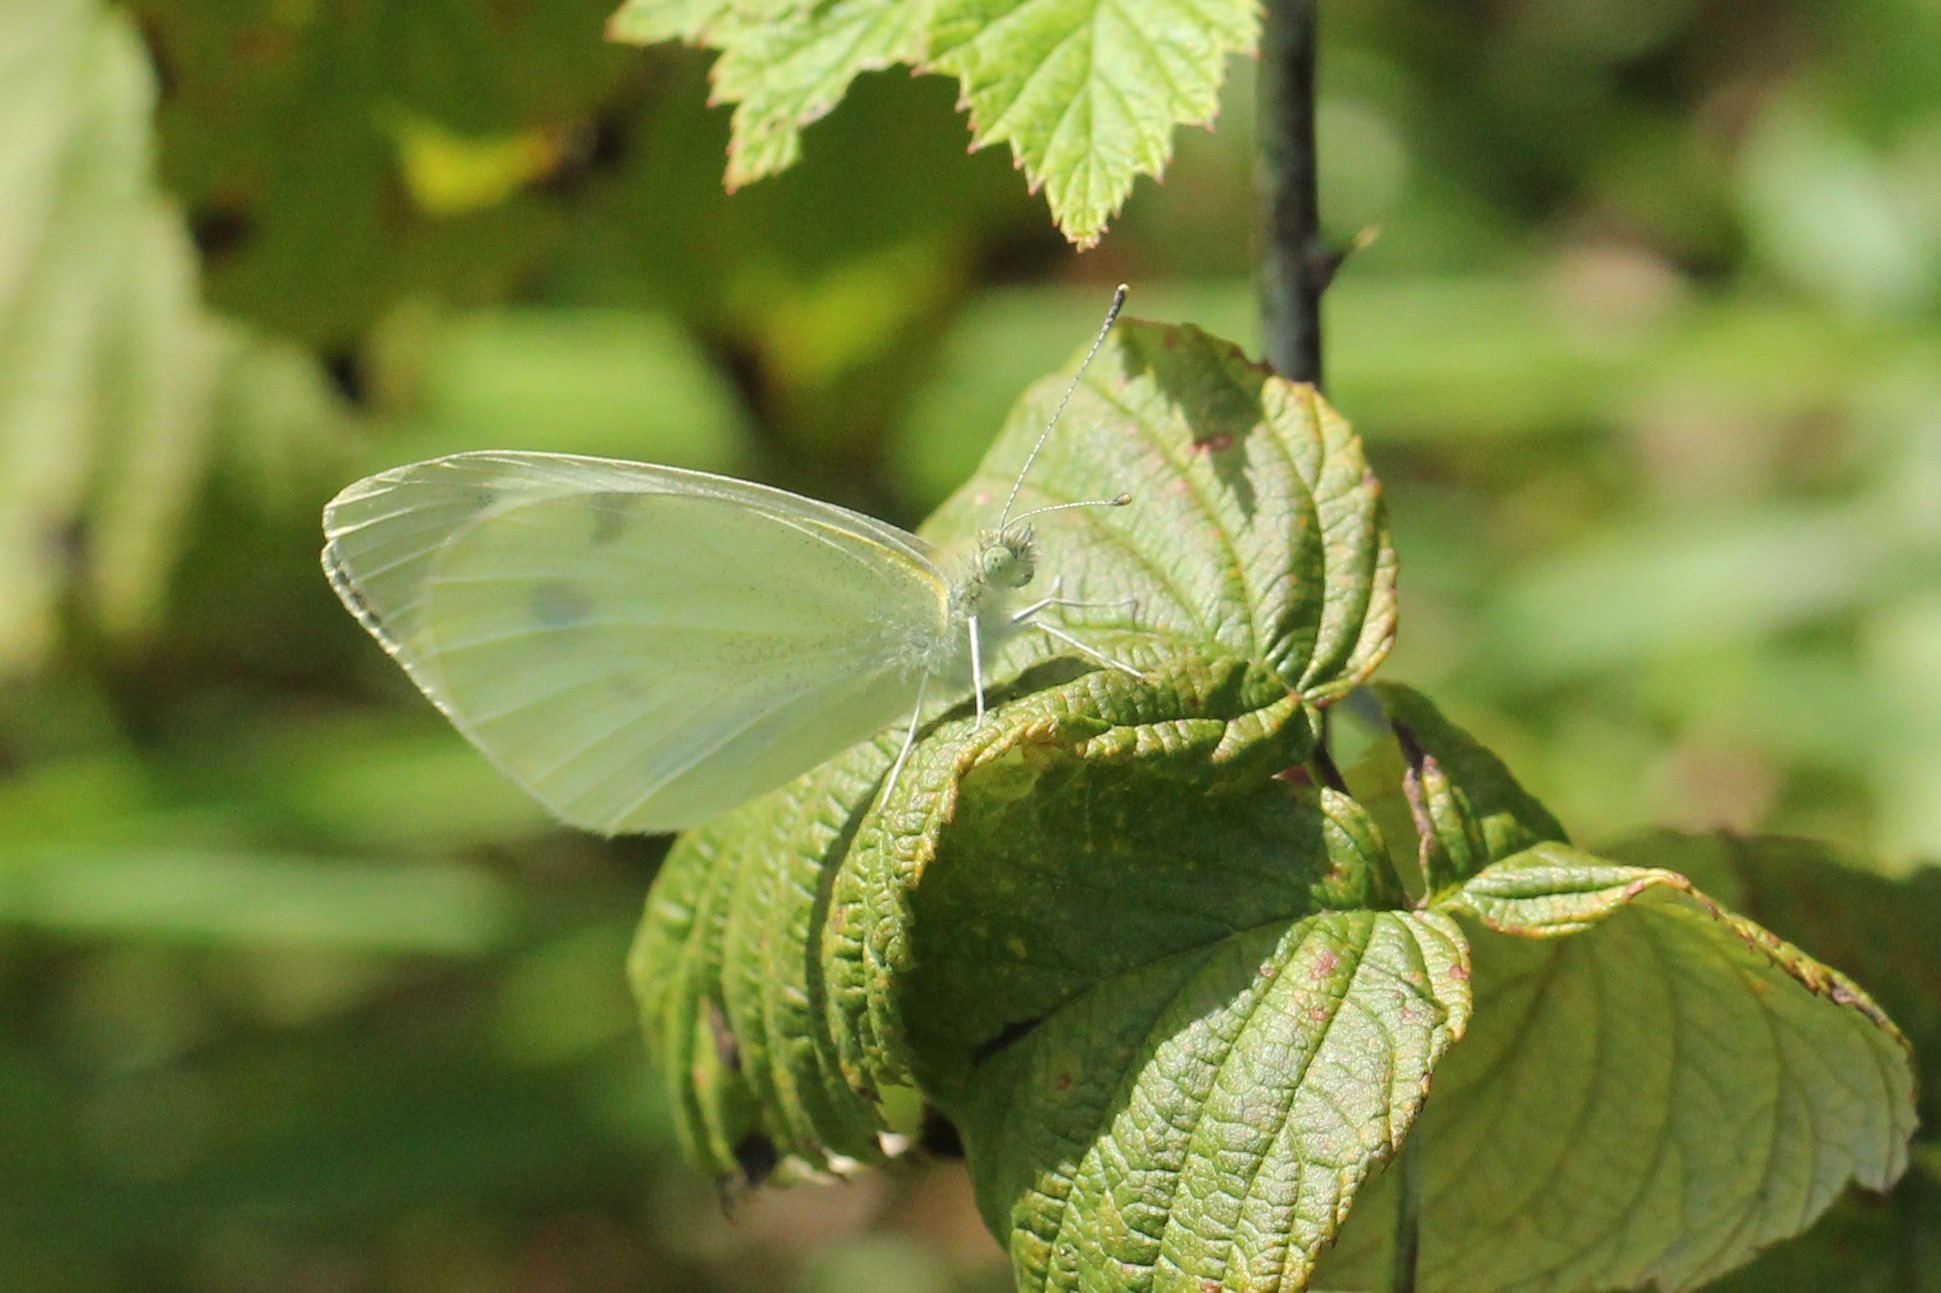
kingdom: Animalia
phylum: Arthropoda
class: Insecta
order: Lepidoptera
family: Pieridae
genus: Pieris
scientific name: Pieris rapae
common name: Small white
